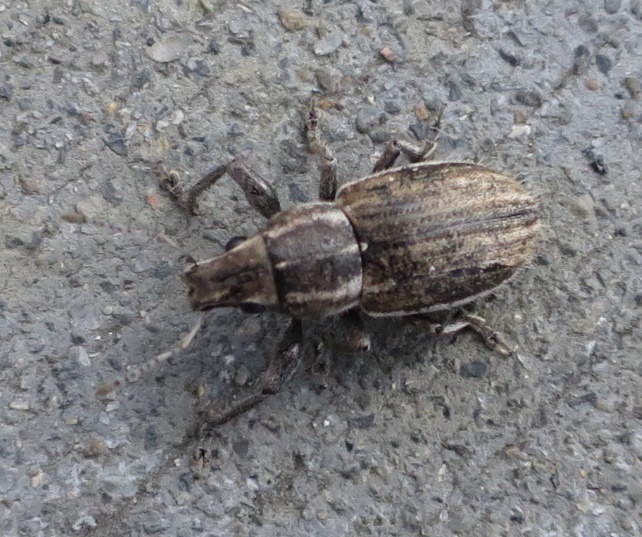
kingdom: Animalia
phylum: Arthropoda
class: Insecta
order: Coleoptera
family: Curculionidae
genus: Naupactus
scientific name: Naupactus leucoloma
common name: Whitefringed beetle
